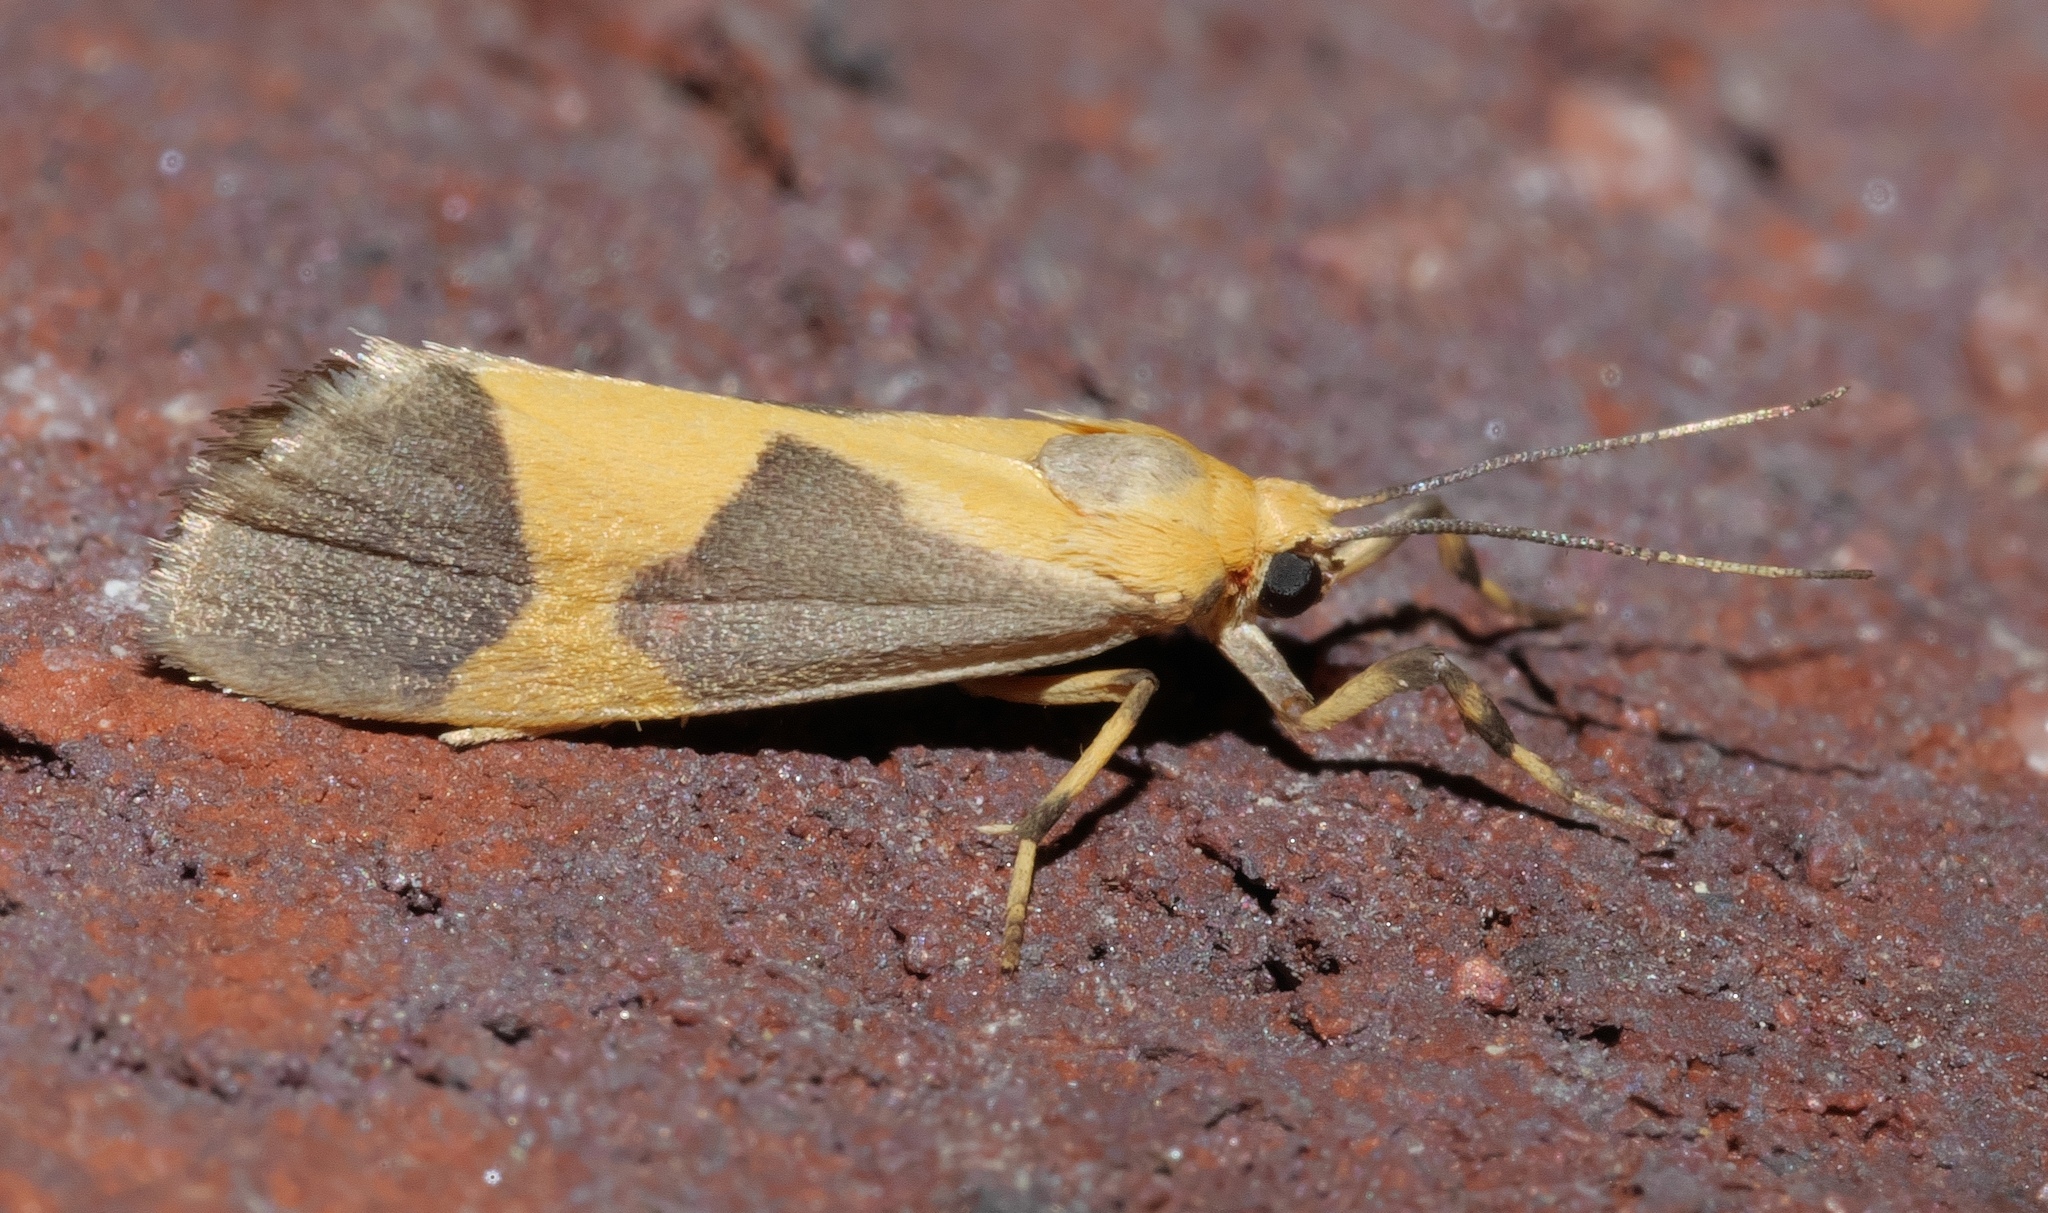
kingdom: Animalia
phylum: Arthropoda
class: Insecta
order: Lepidoptera
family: Erebidae
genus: Cisthene
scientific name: Cisthene unifascia
